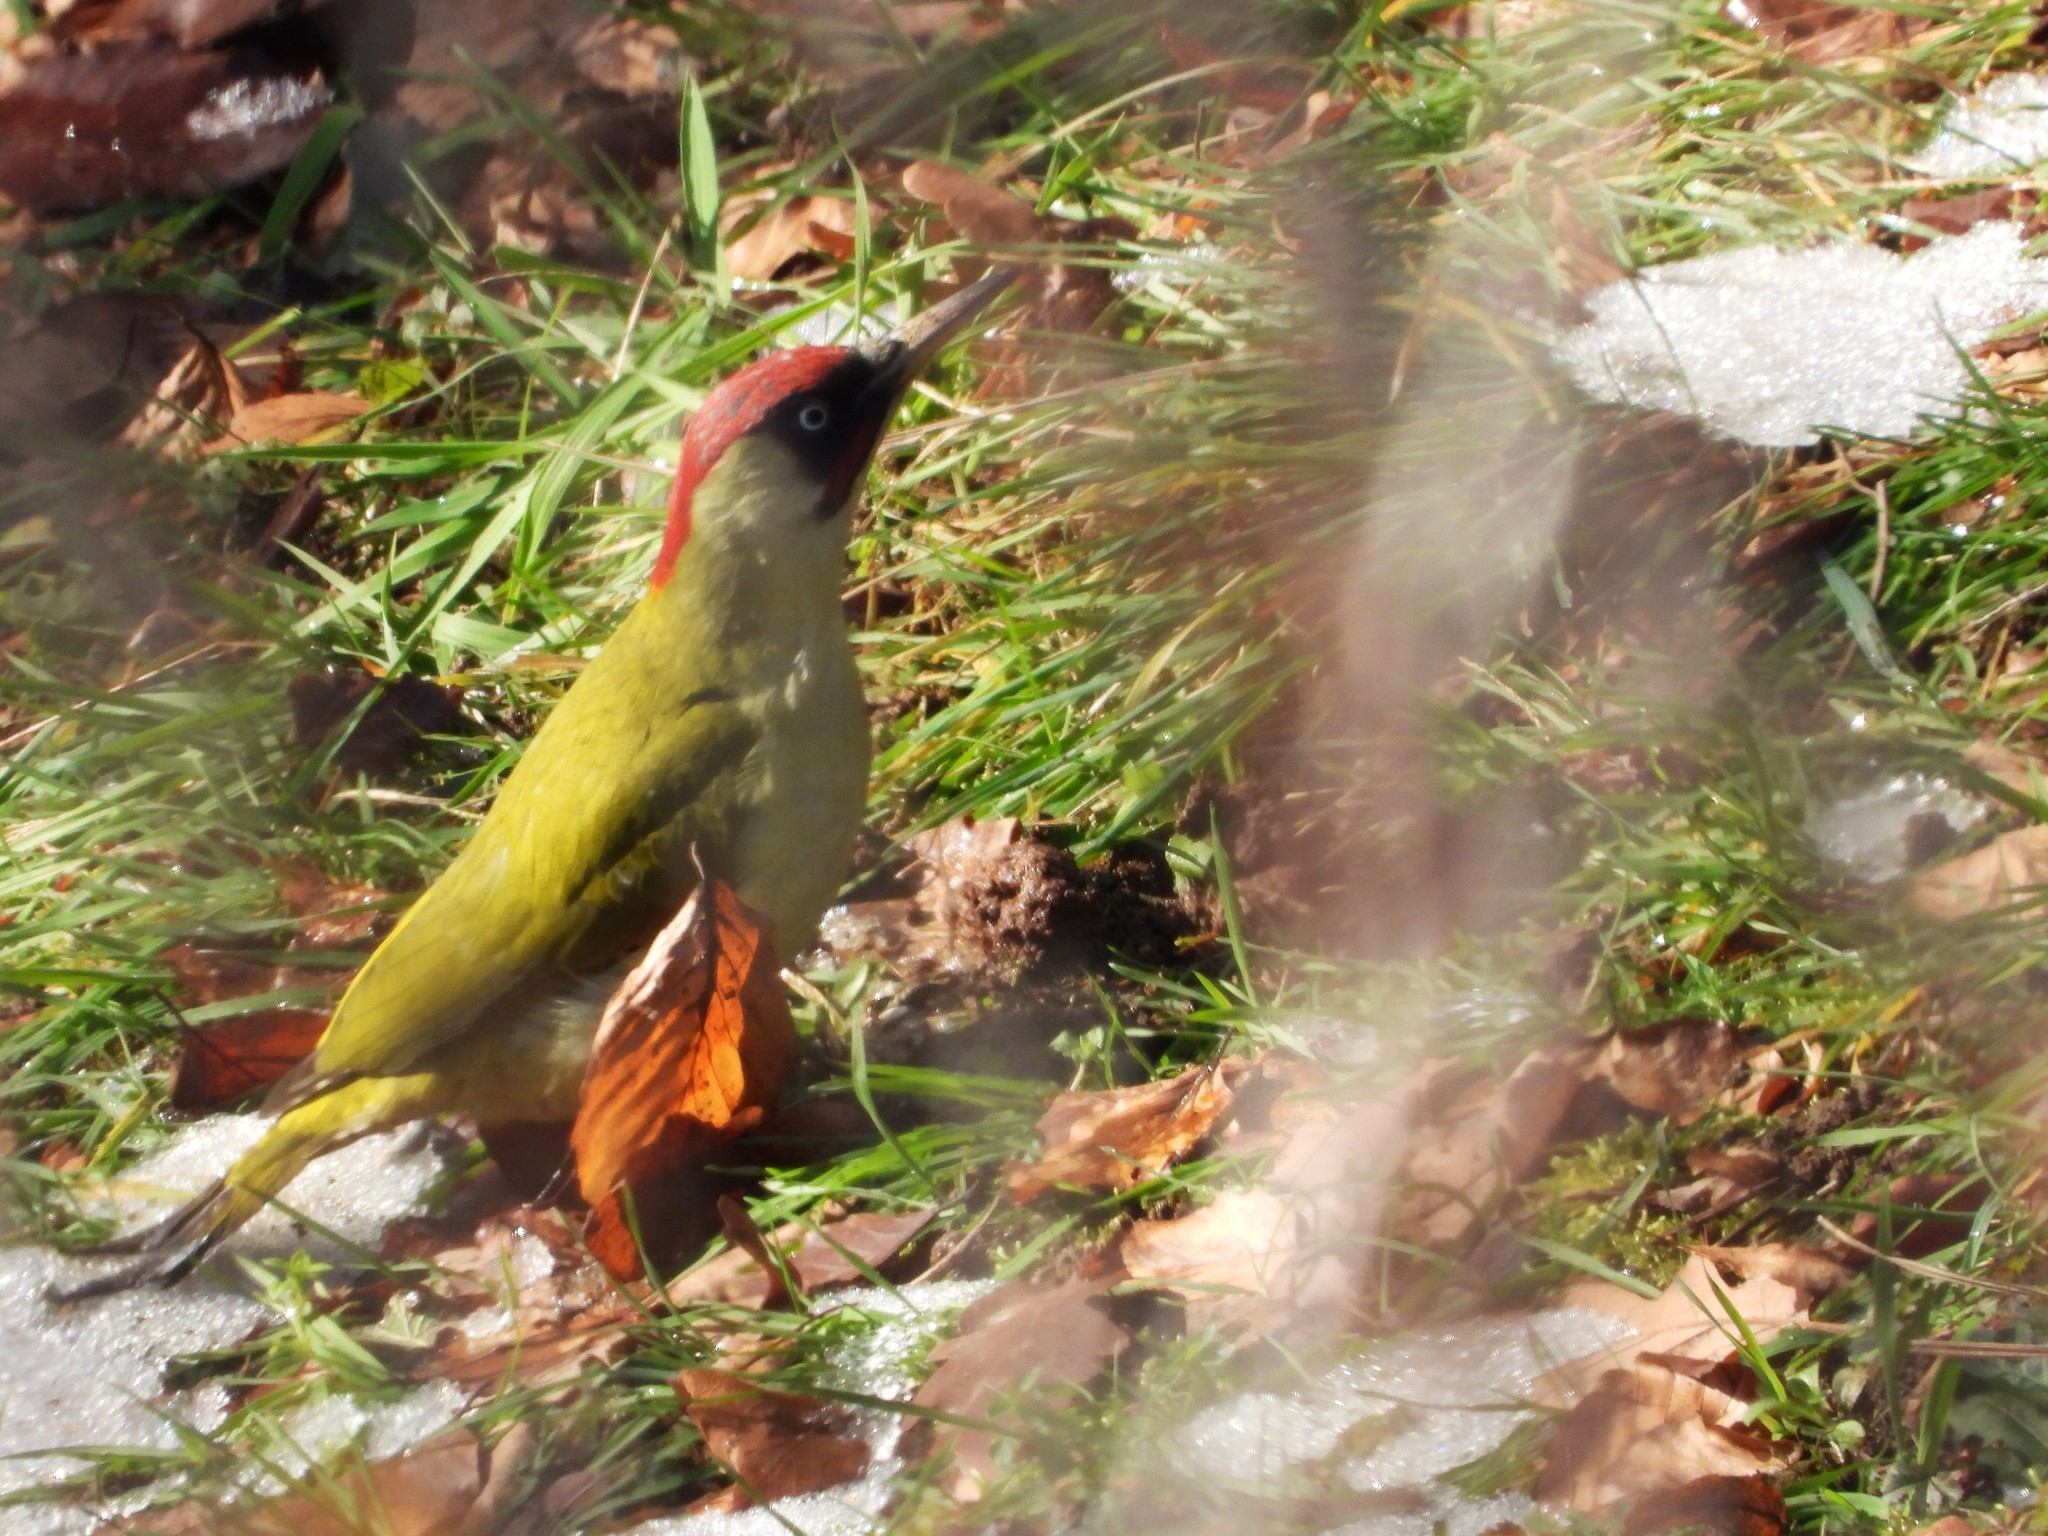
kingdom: Animalia
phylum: Chordata
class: Aves
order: Piciformes
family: Picidae
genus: Picus
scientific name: Picus viridis
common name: European green woodpecker
